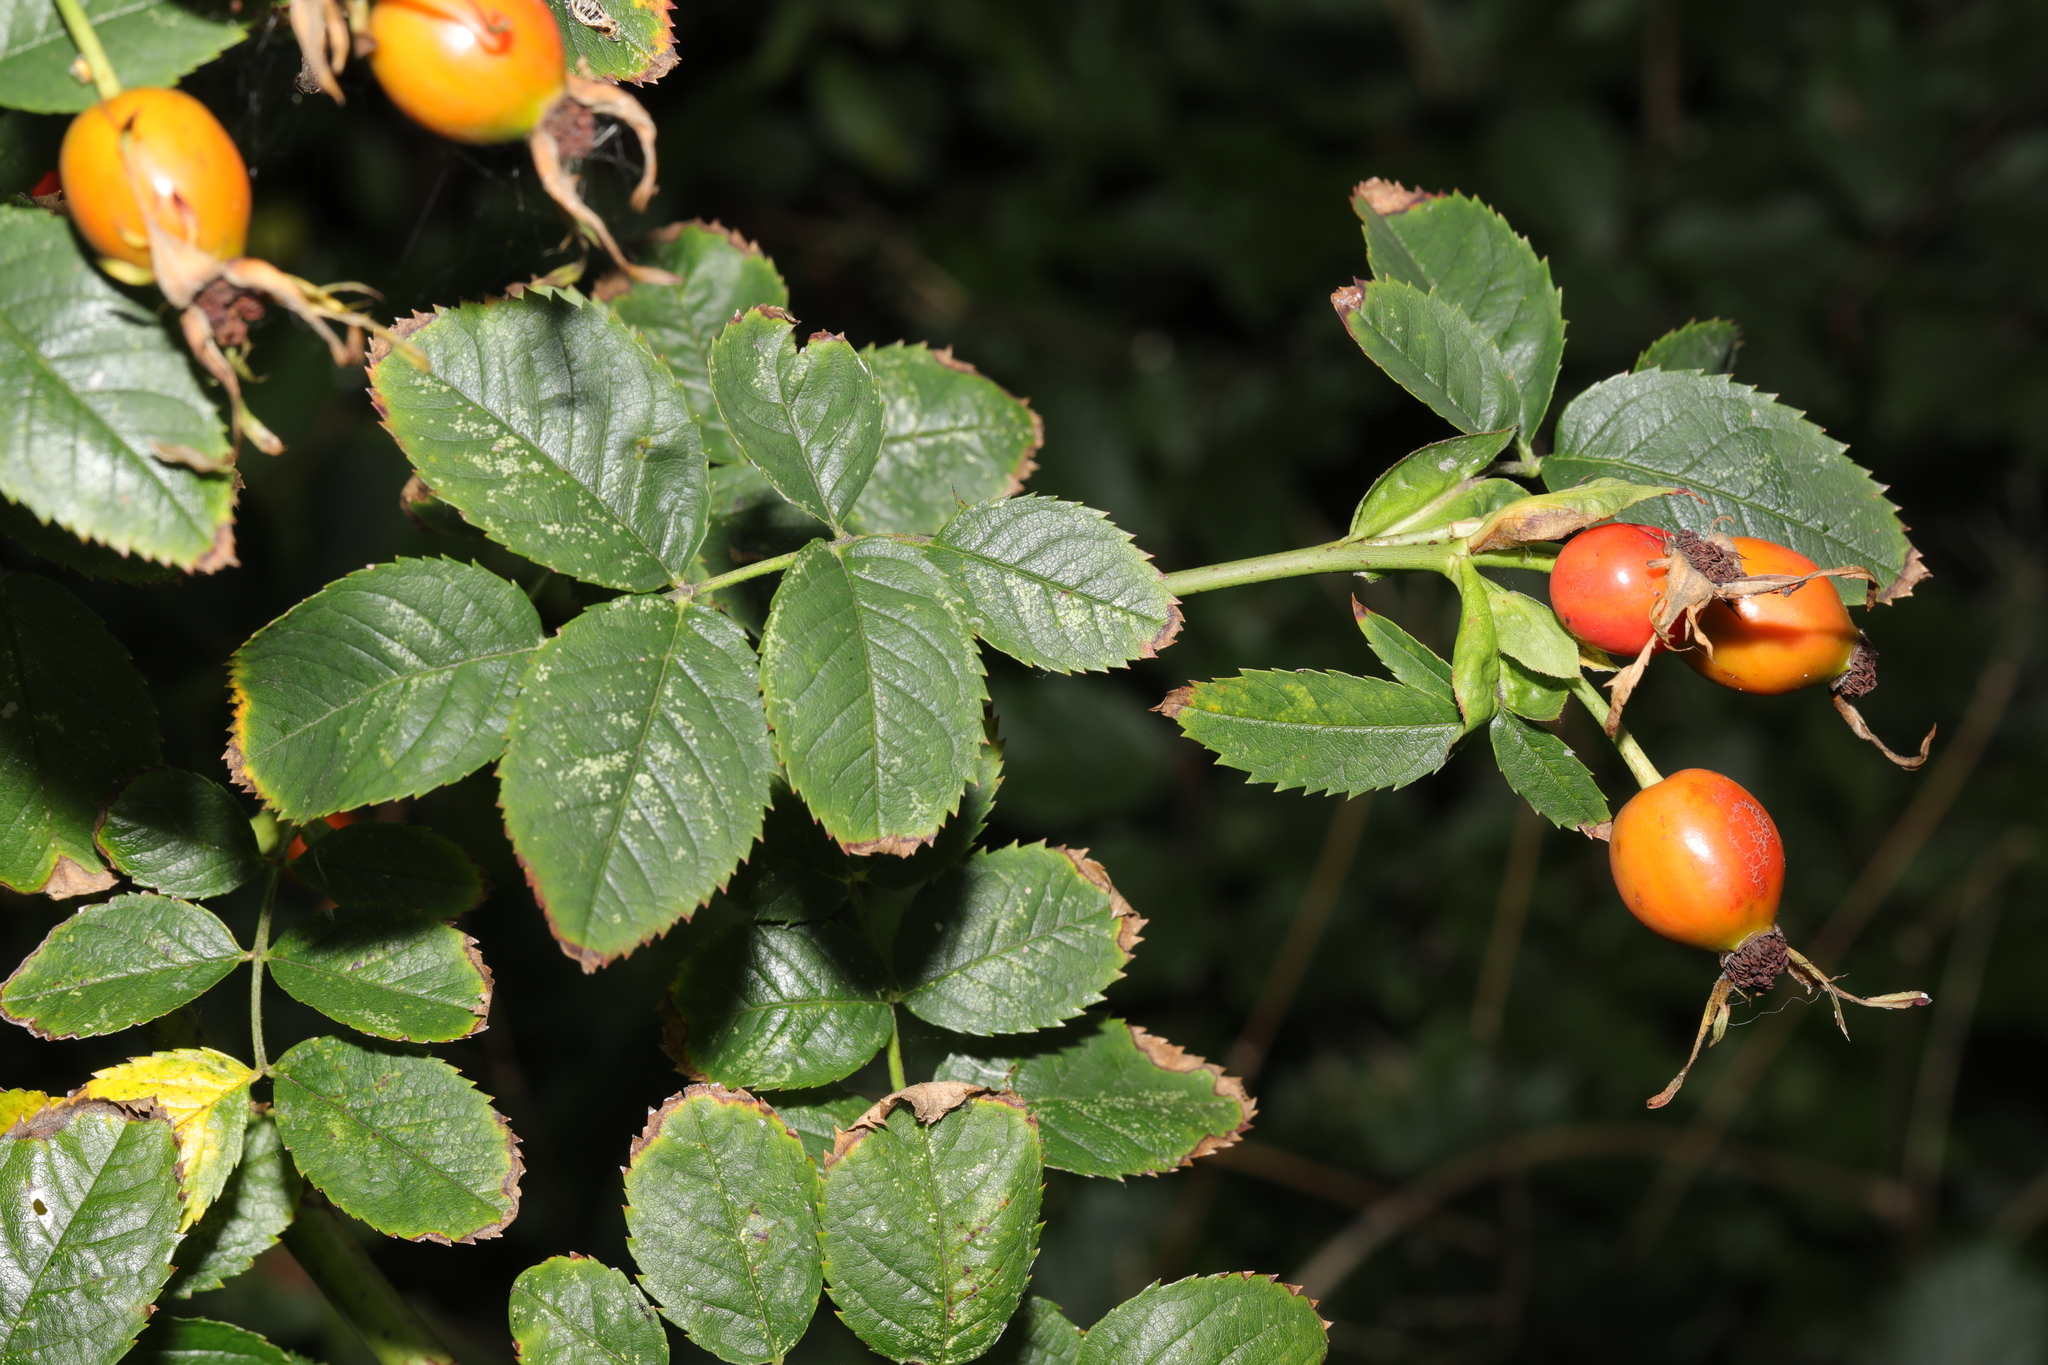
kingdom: Plantae
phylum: Tracheophyta
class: Magnoliopsida
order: Rosales
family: Rosaceae
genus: Rosa
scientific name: Rosa canina
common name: Dog rose
